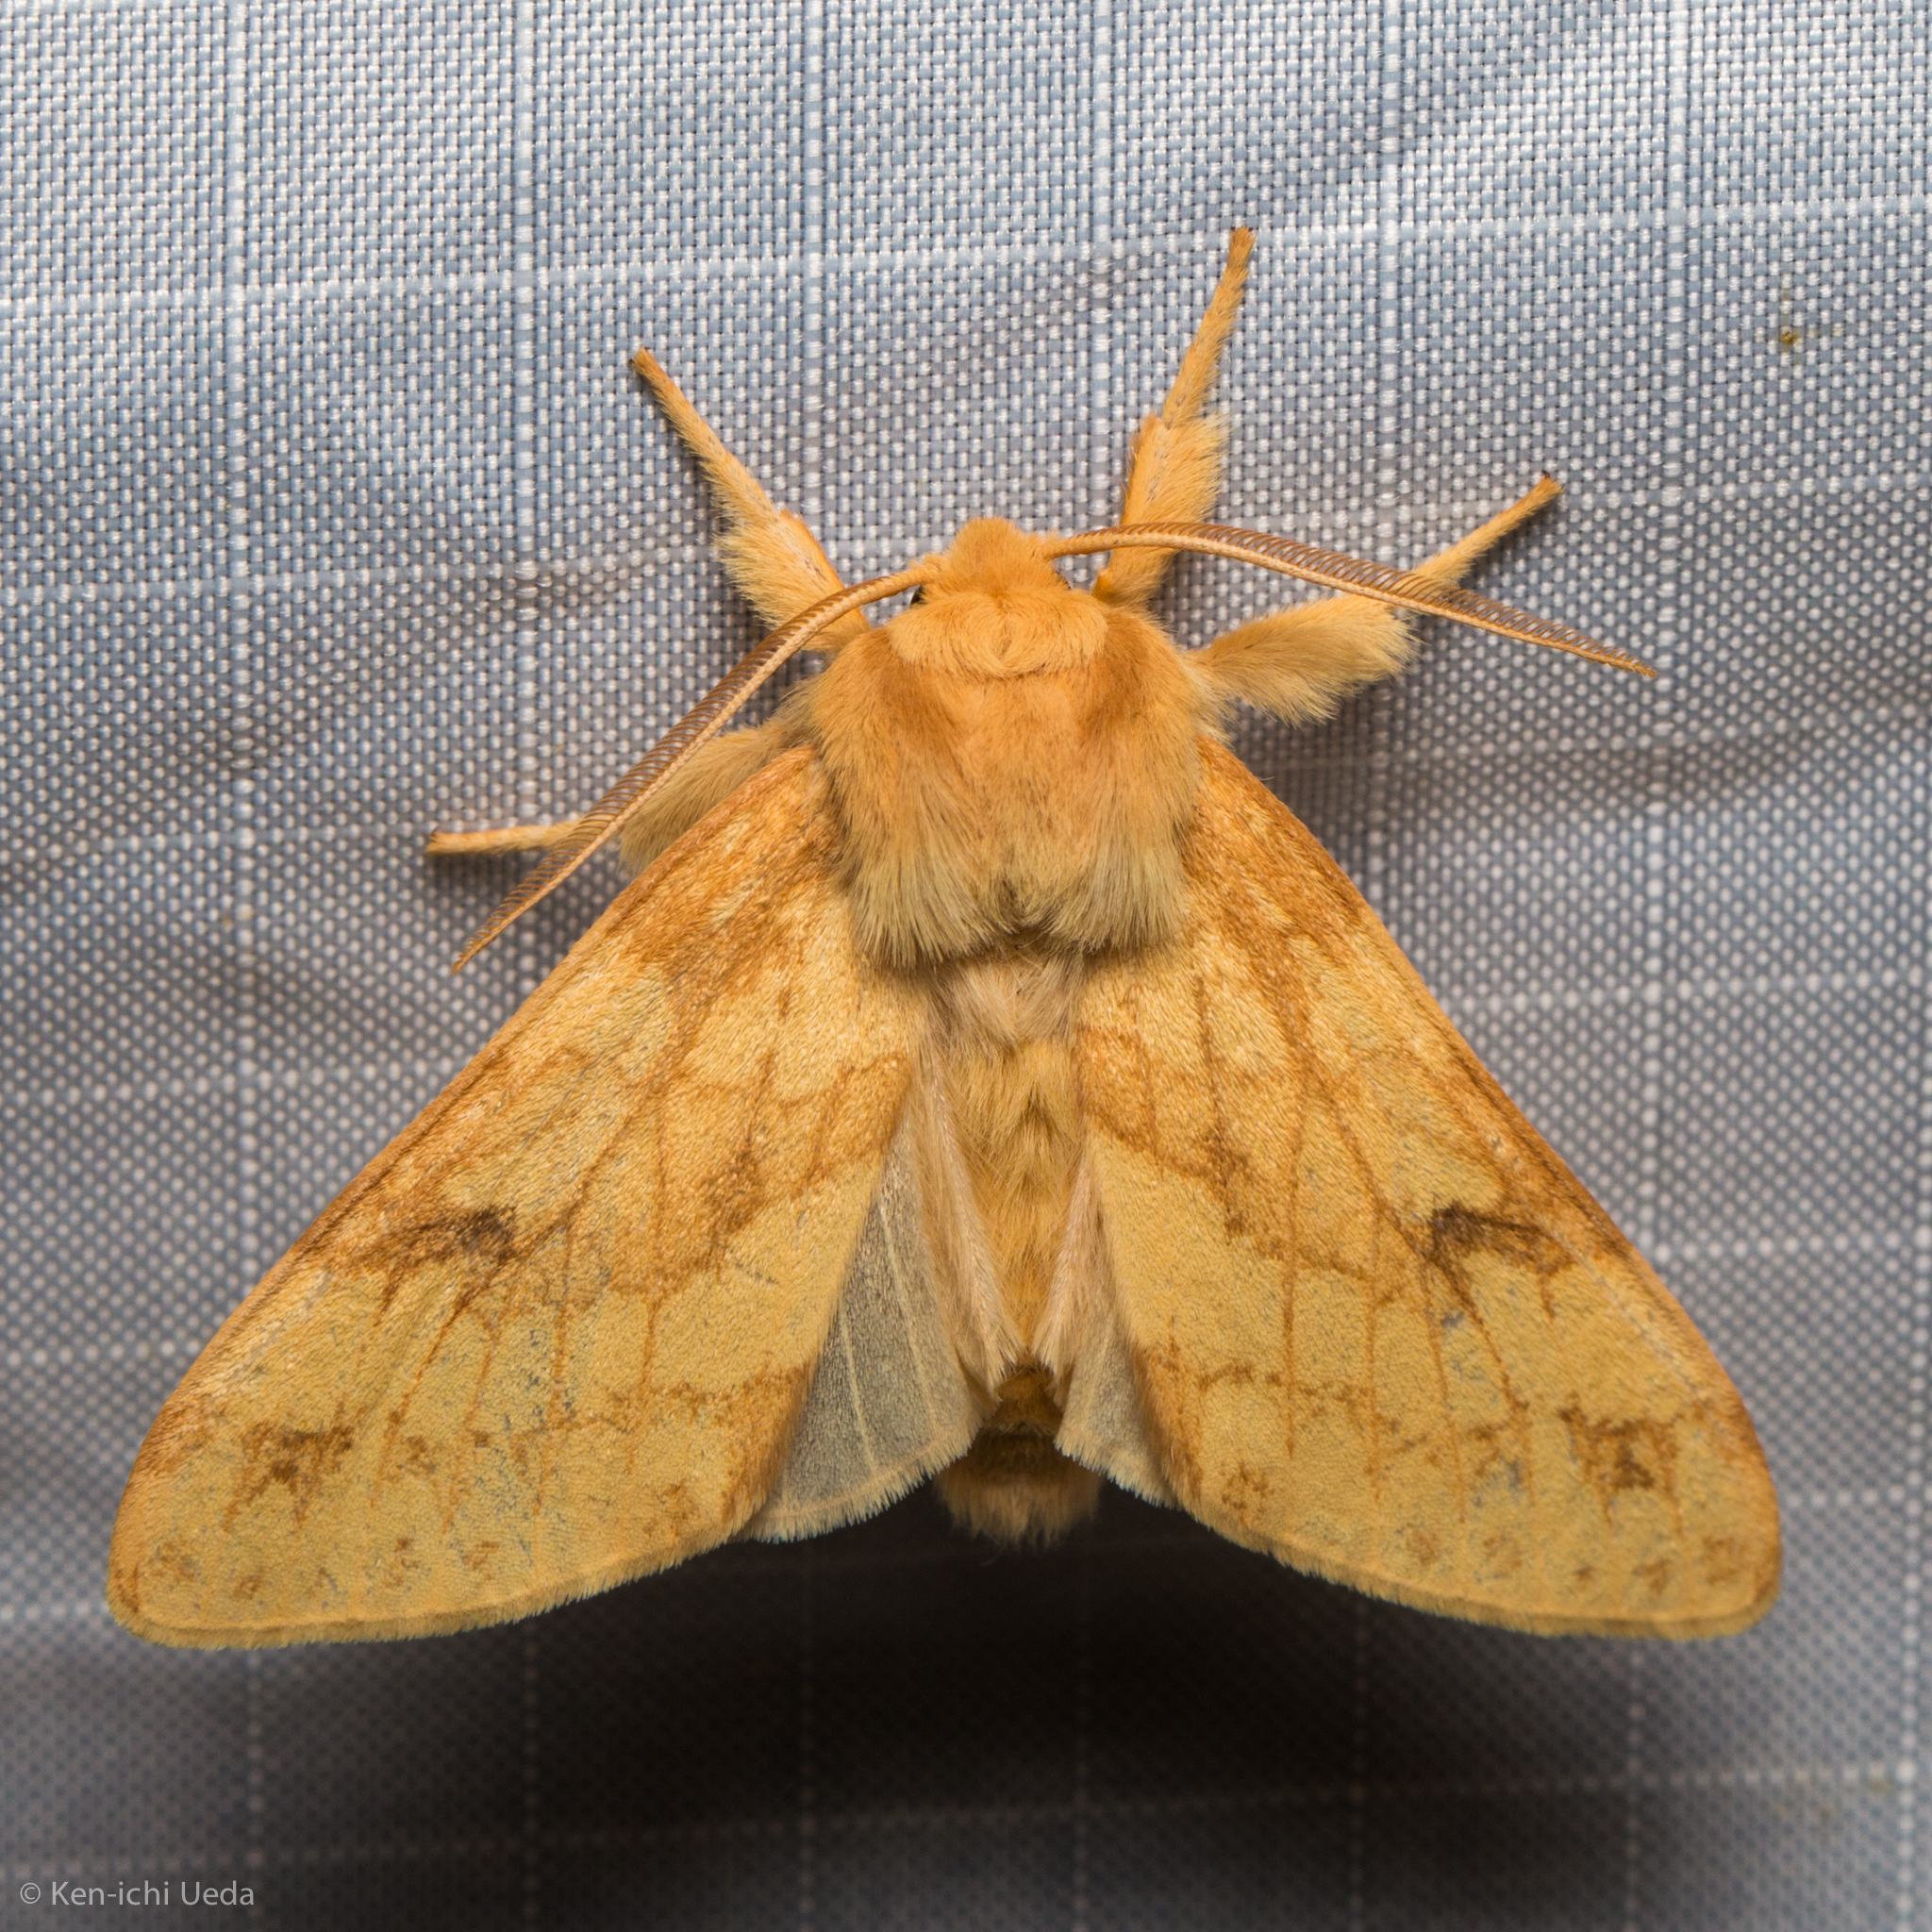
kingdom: Animalia
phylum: Arthropoda
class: Insecta
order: Lepidoptera
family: Erebidae
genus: Lophocampa
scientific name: Lophocampa maculata
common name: Spotted tussock moth
